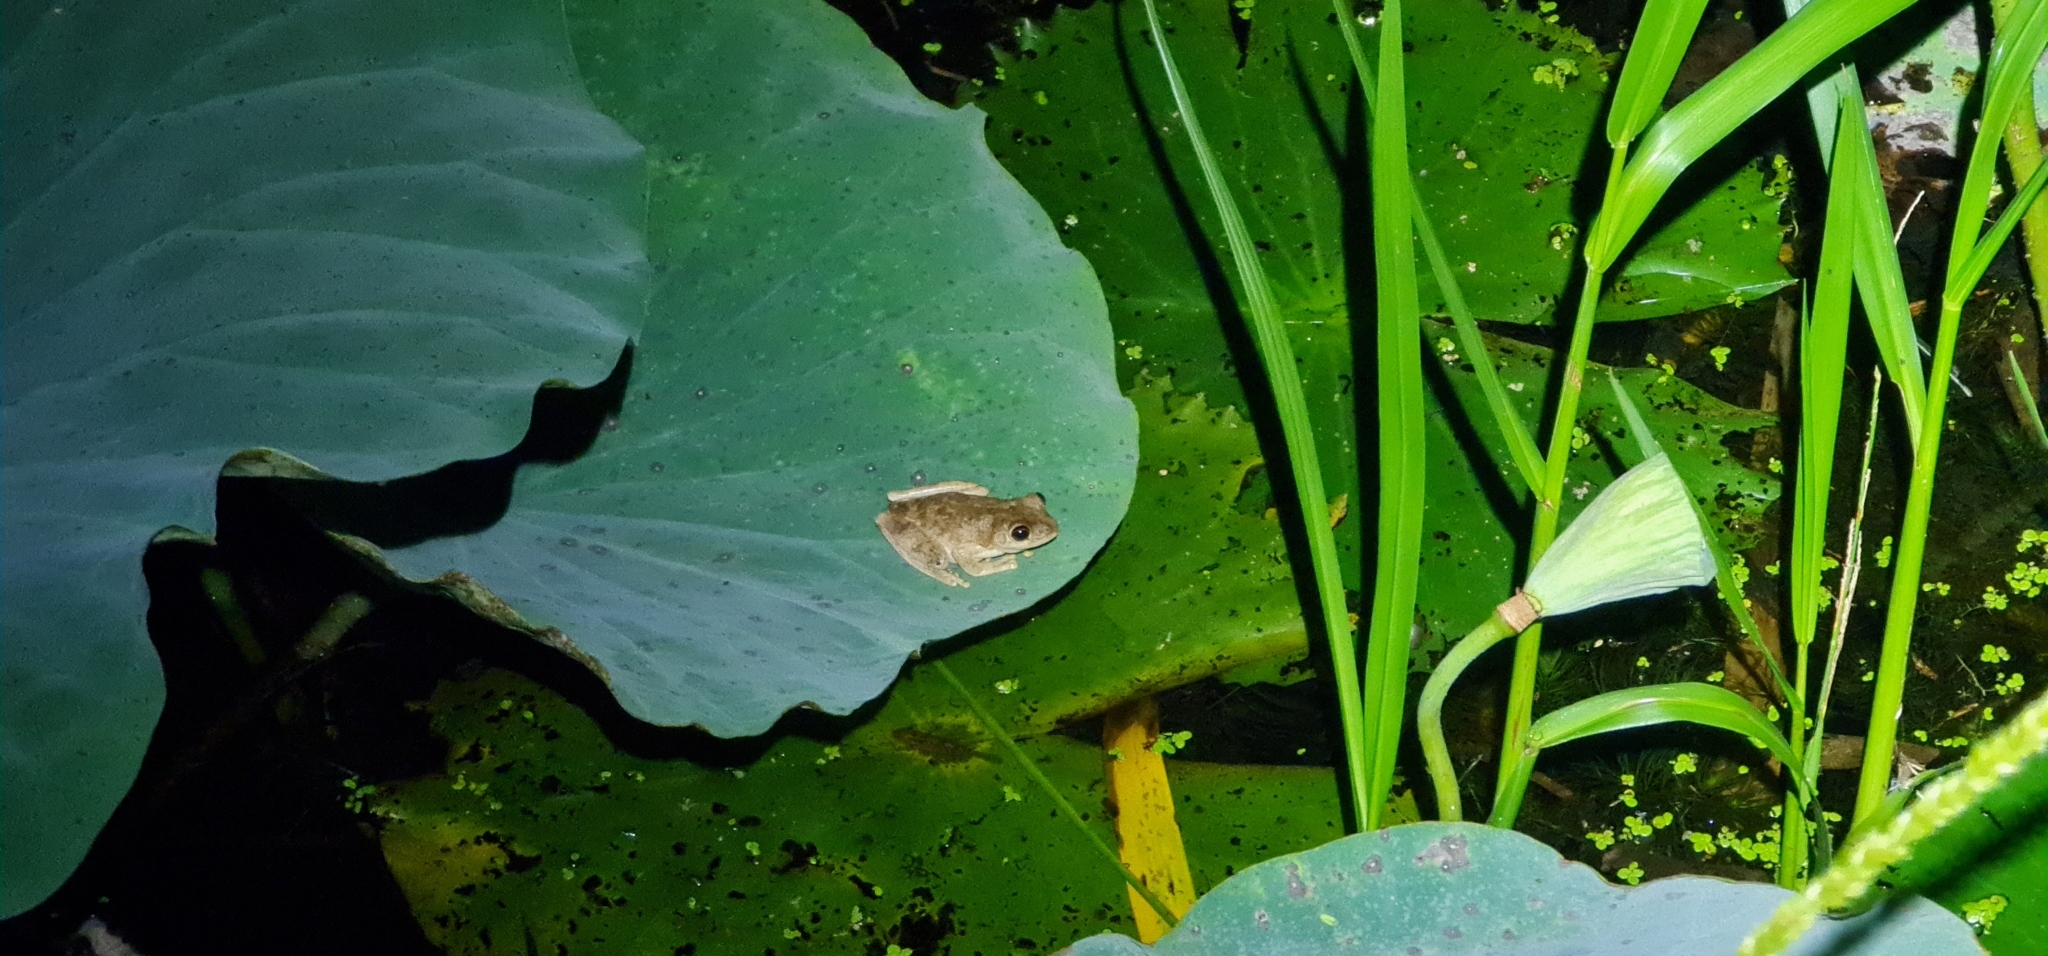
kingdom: Animalia
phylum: Chordata
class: Amphibia
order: Anura
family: Pelodryadidae
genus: Litoria
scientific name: Litoria
